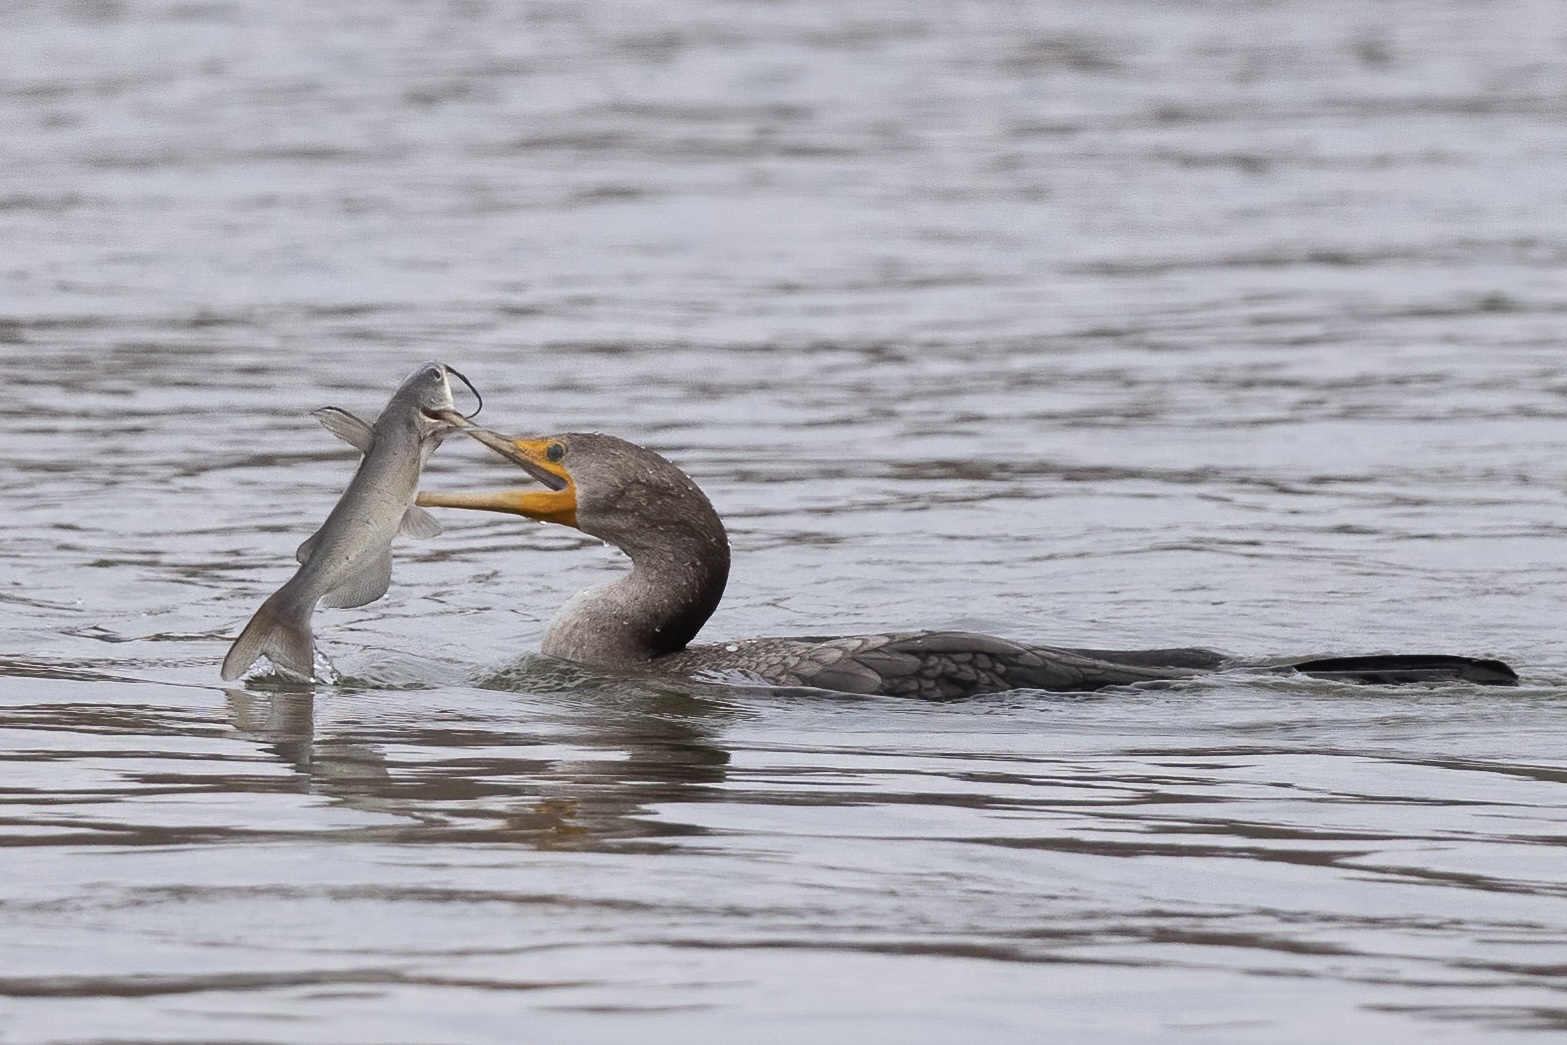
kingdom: Animalia
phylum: Chordata
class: Aves
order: Suliformes
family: Phalacrocoracidae
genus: Phalacrocorax
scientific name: Phalacrocorax auritus
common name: Double-crested cormorant
